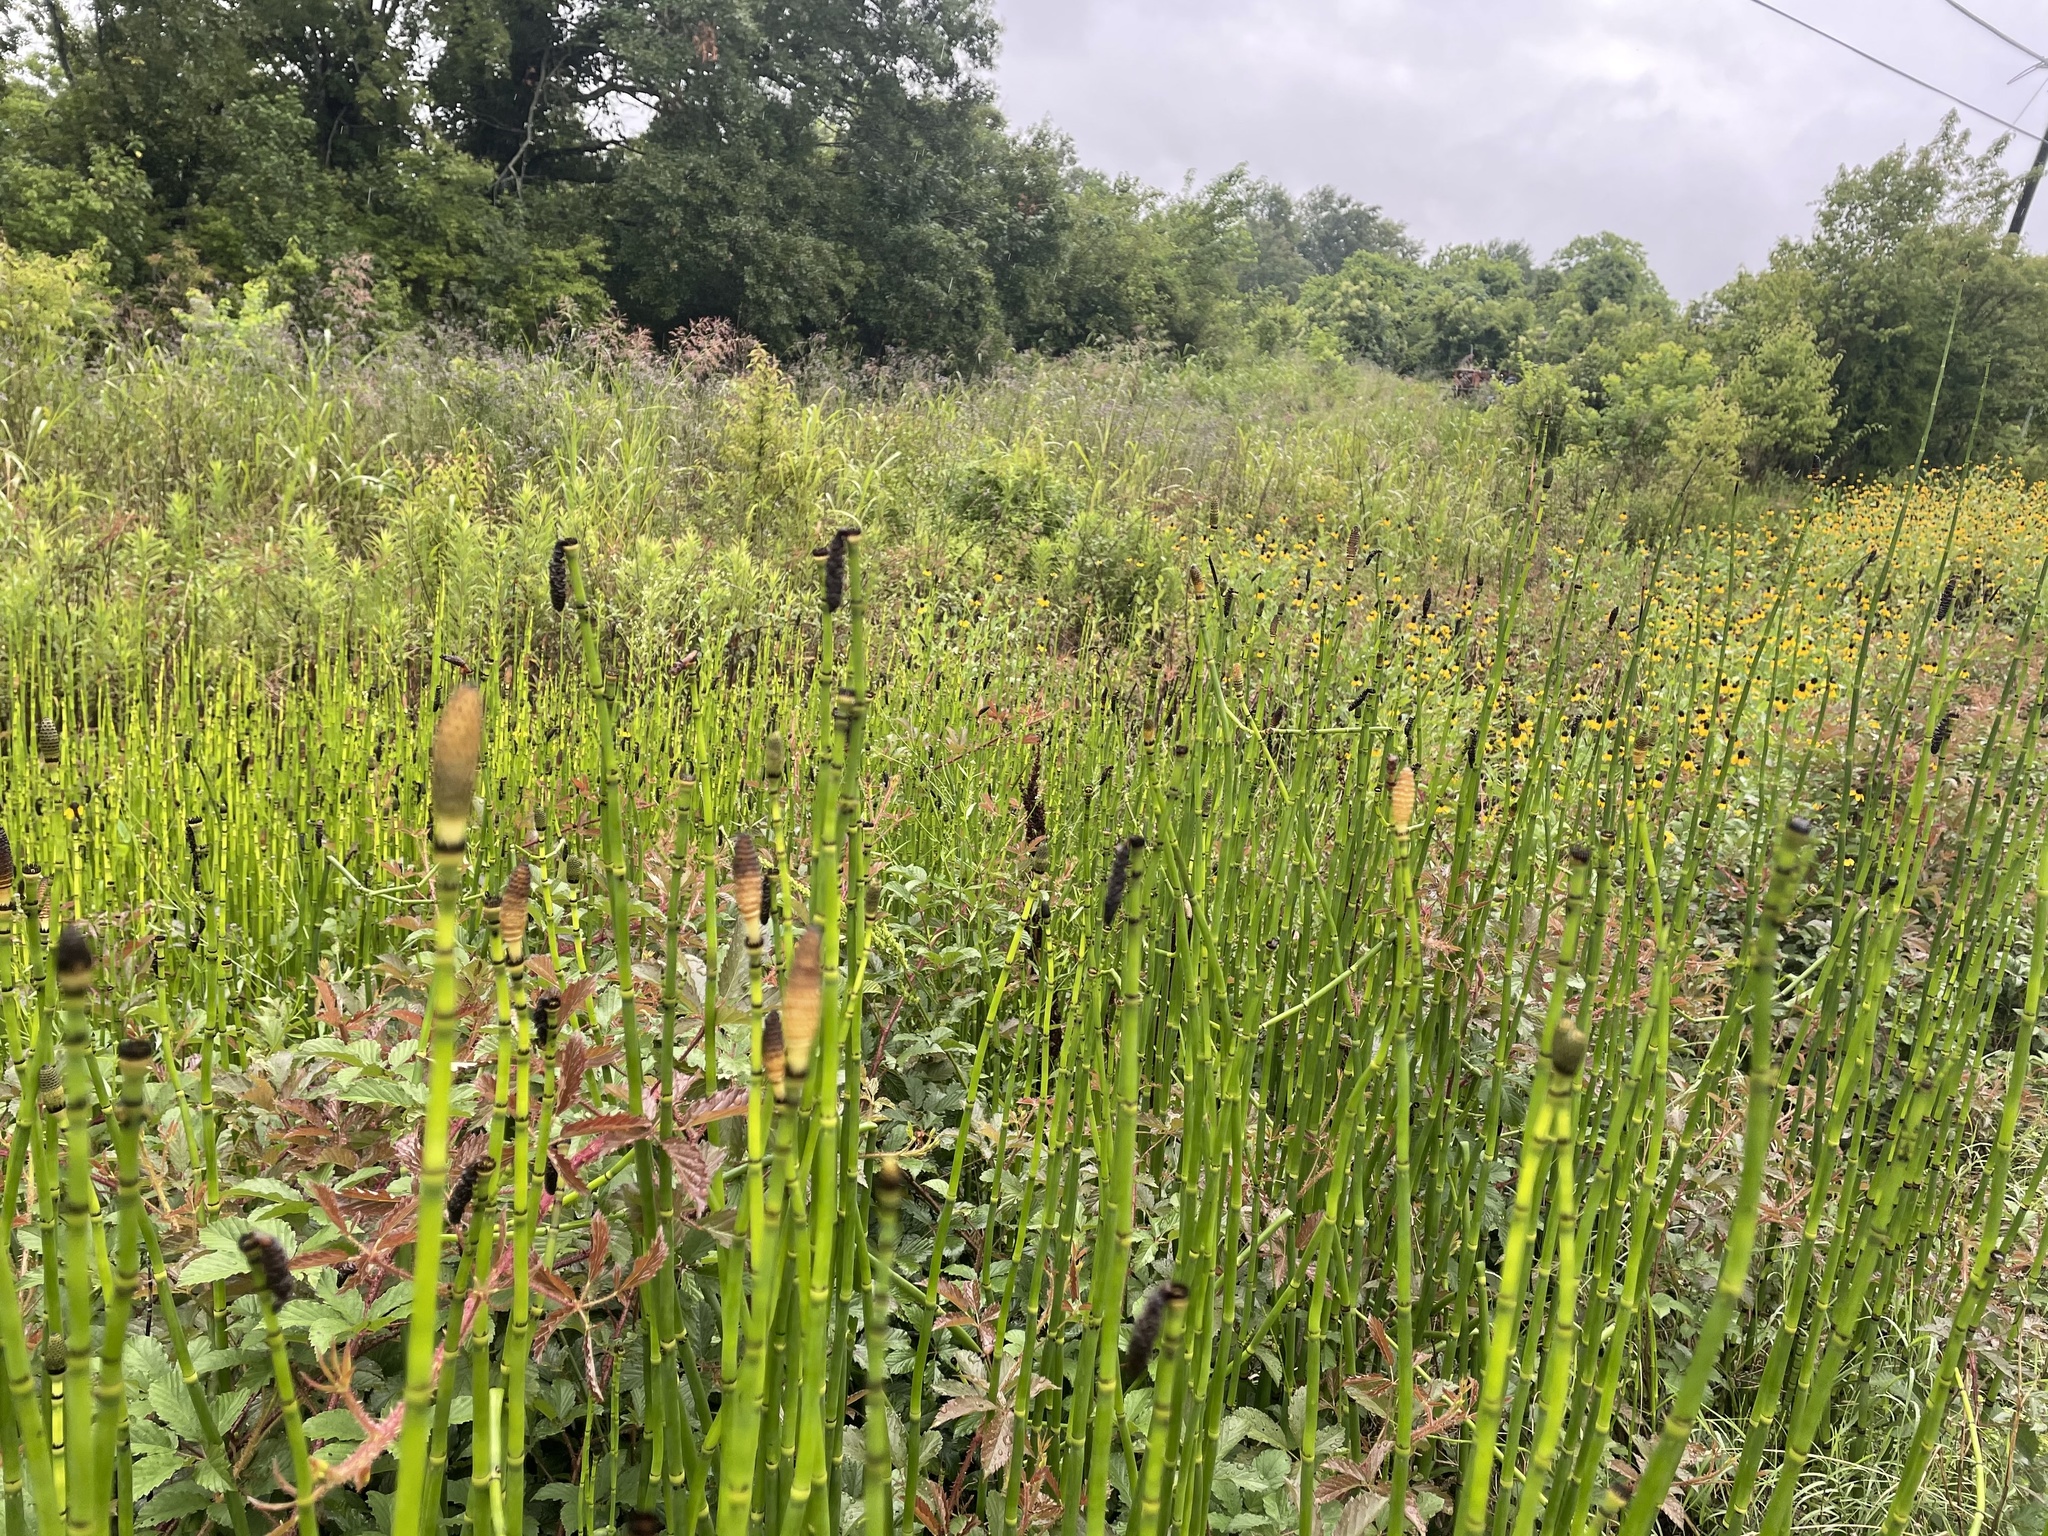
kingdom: Plantae
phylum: Tracheophyta
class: Polypodiopsida
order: Equisetales
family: Equisetaceae
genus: Equisetum
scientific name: Equisetum hyemale
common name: Rough horsetail
